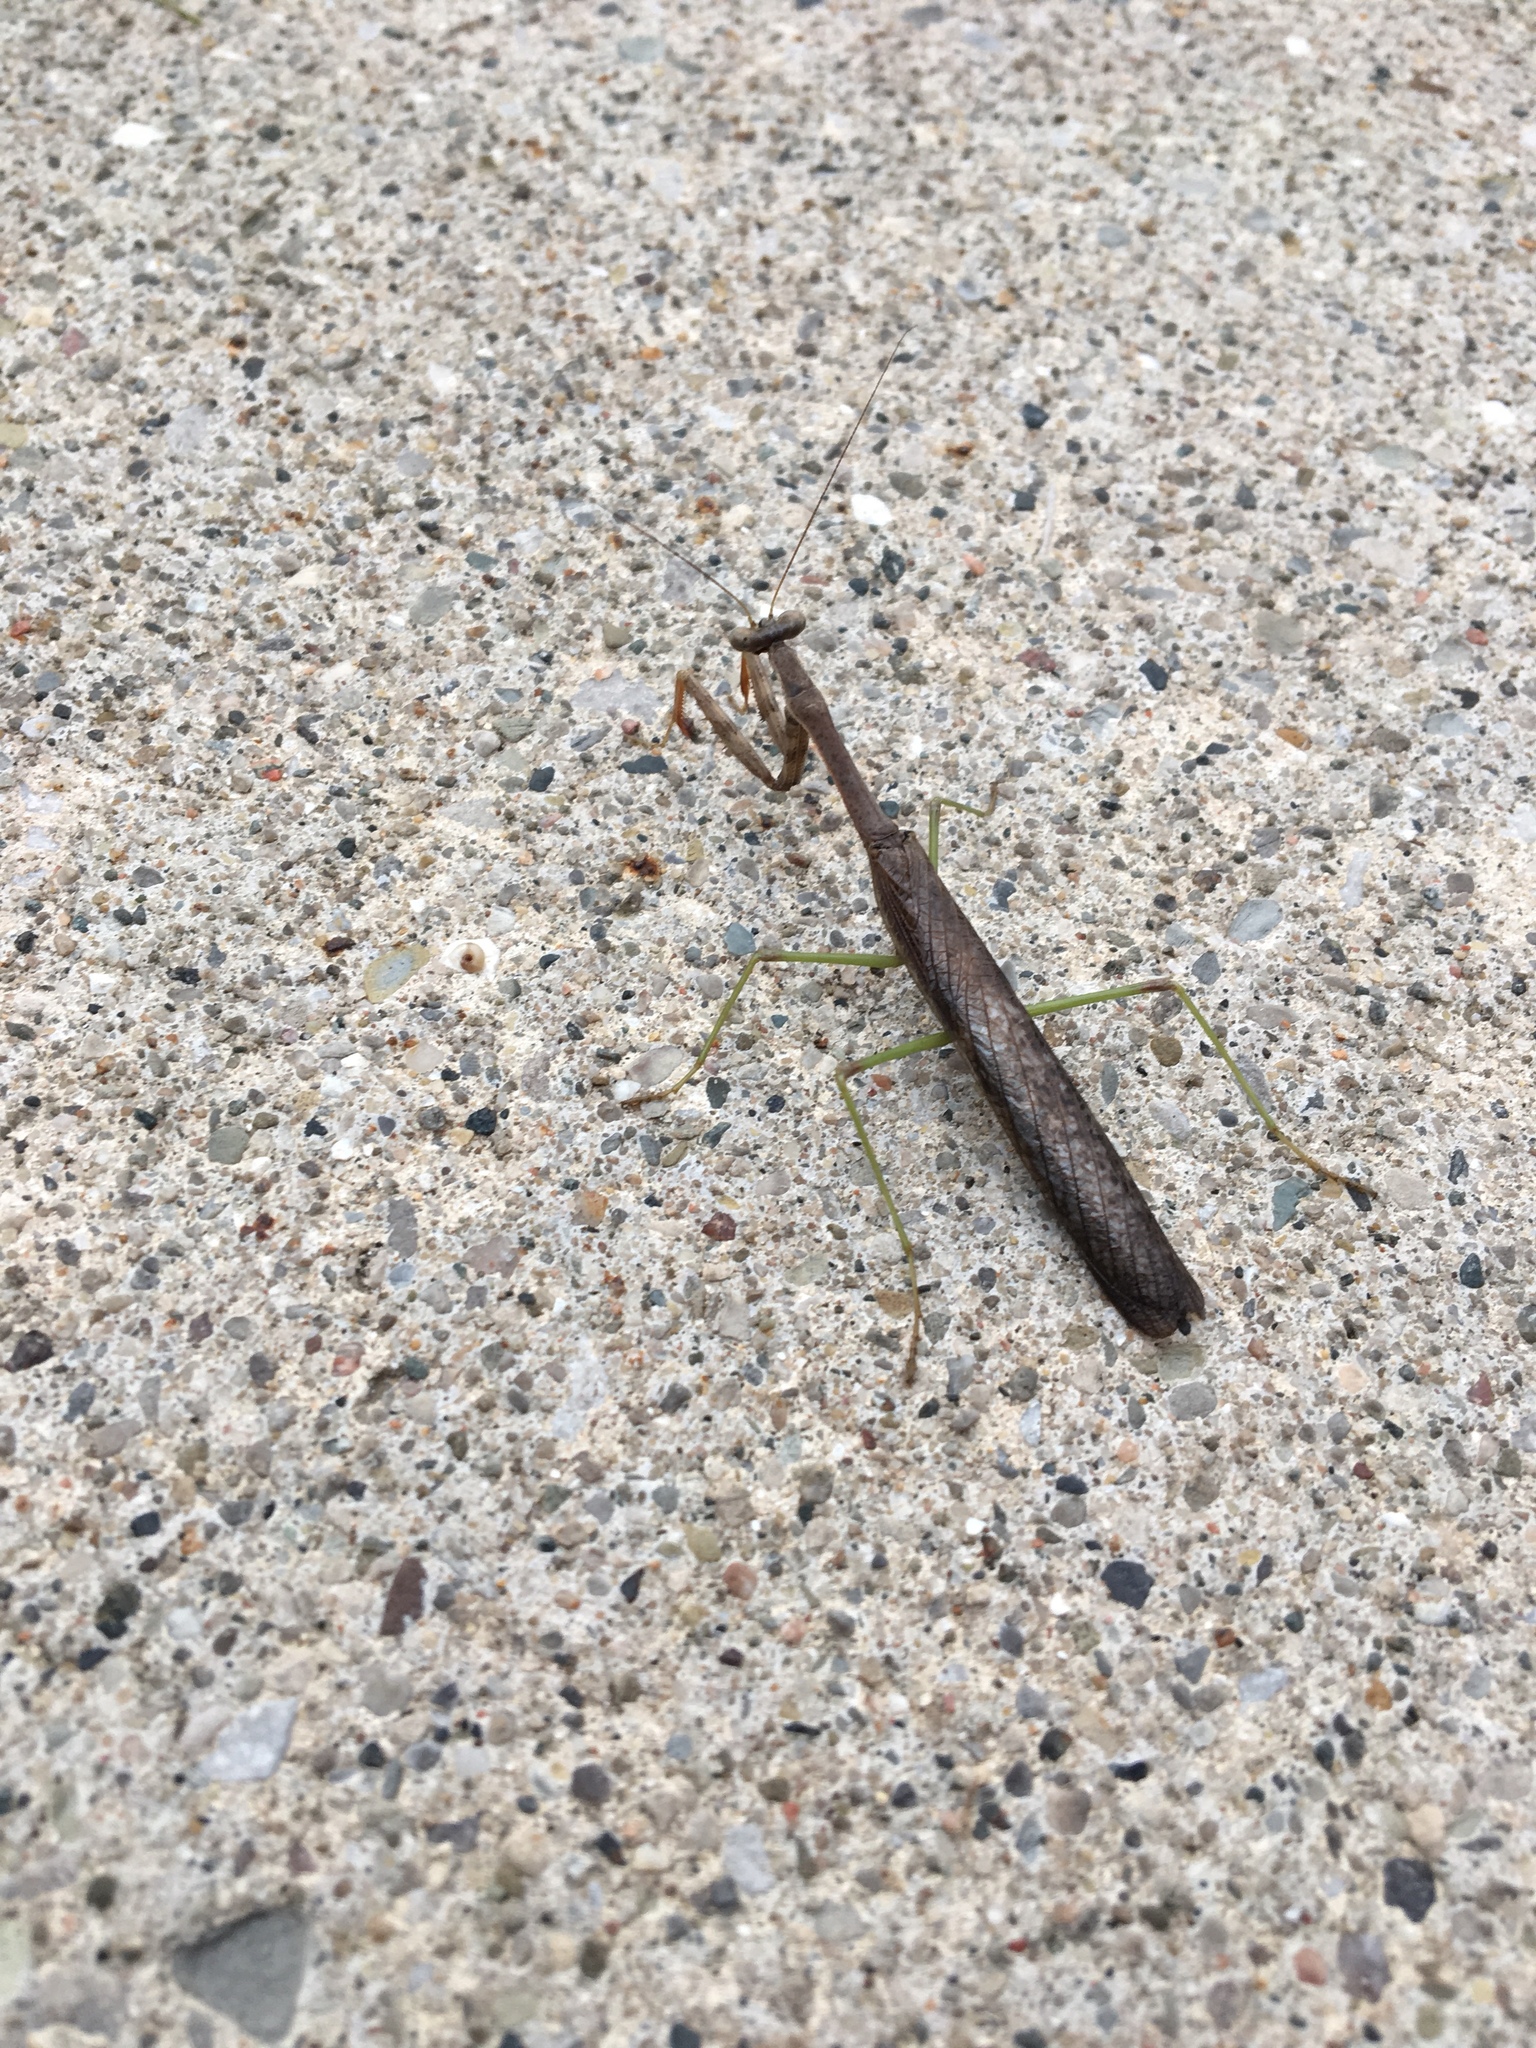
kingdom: Animalia
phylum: Arthropoda
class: Insecta
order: Mantodea
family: Mantidae
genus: Stagmomantis
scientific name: Stagmomantis carolina
